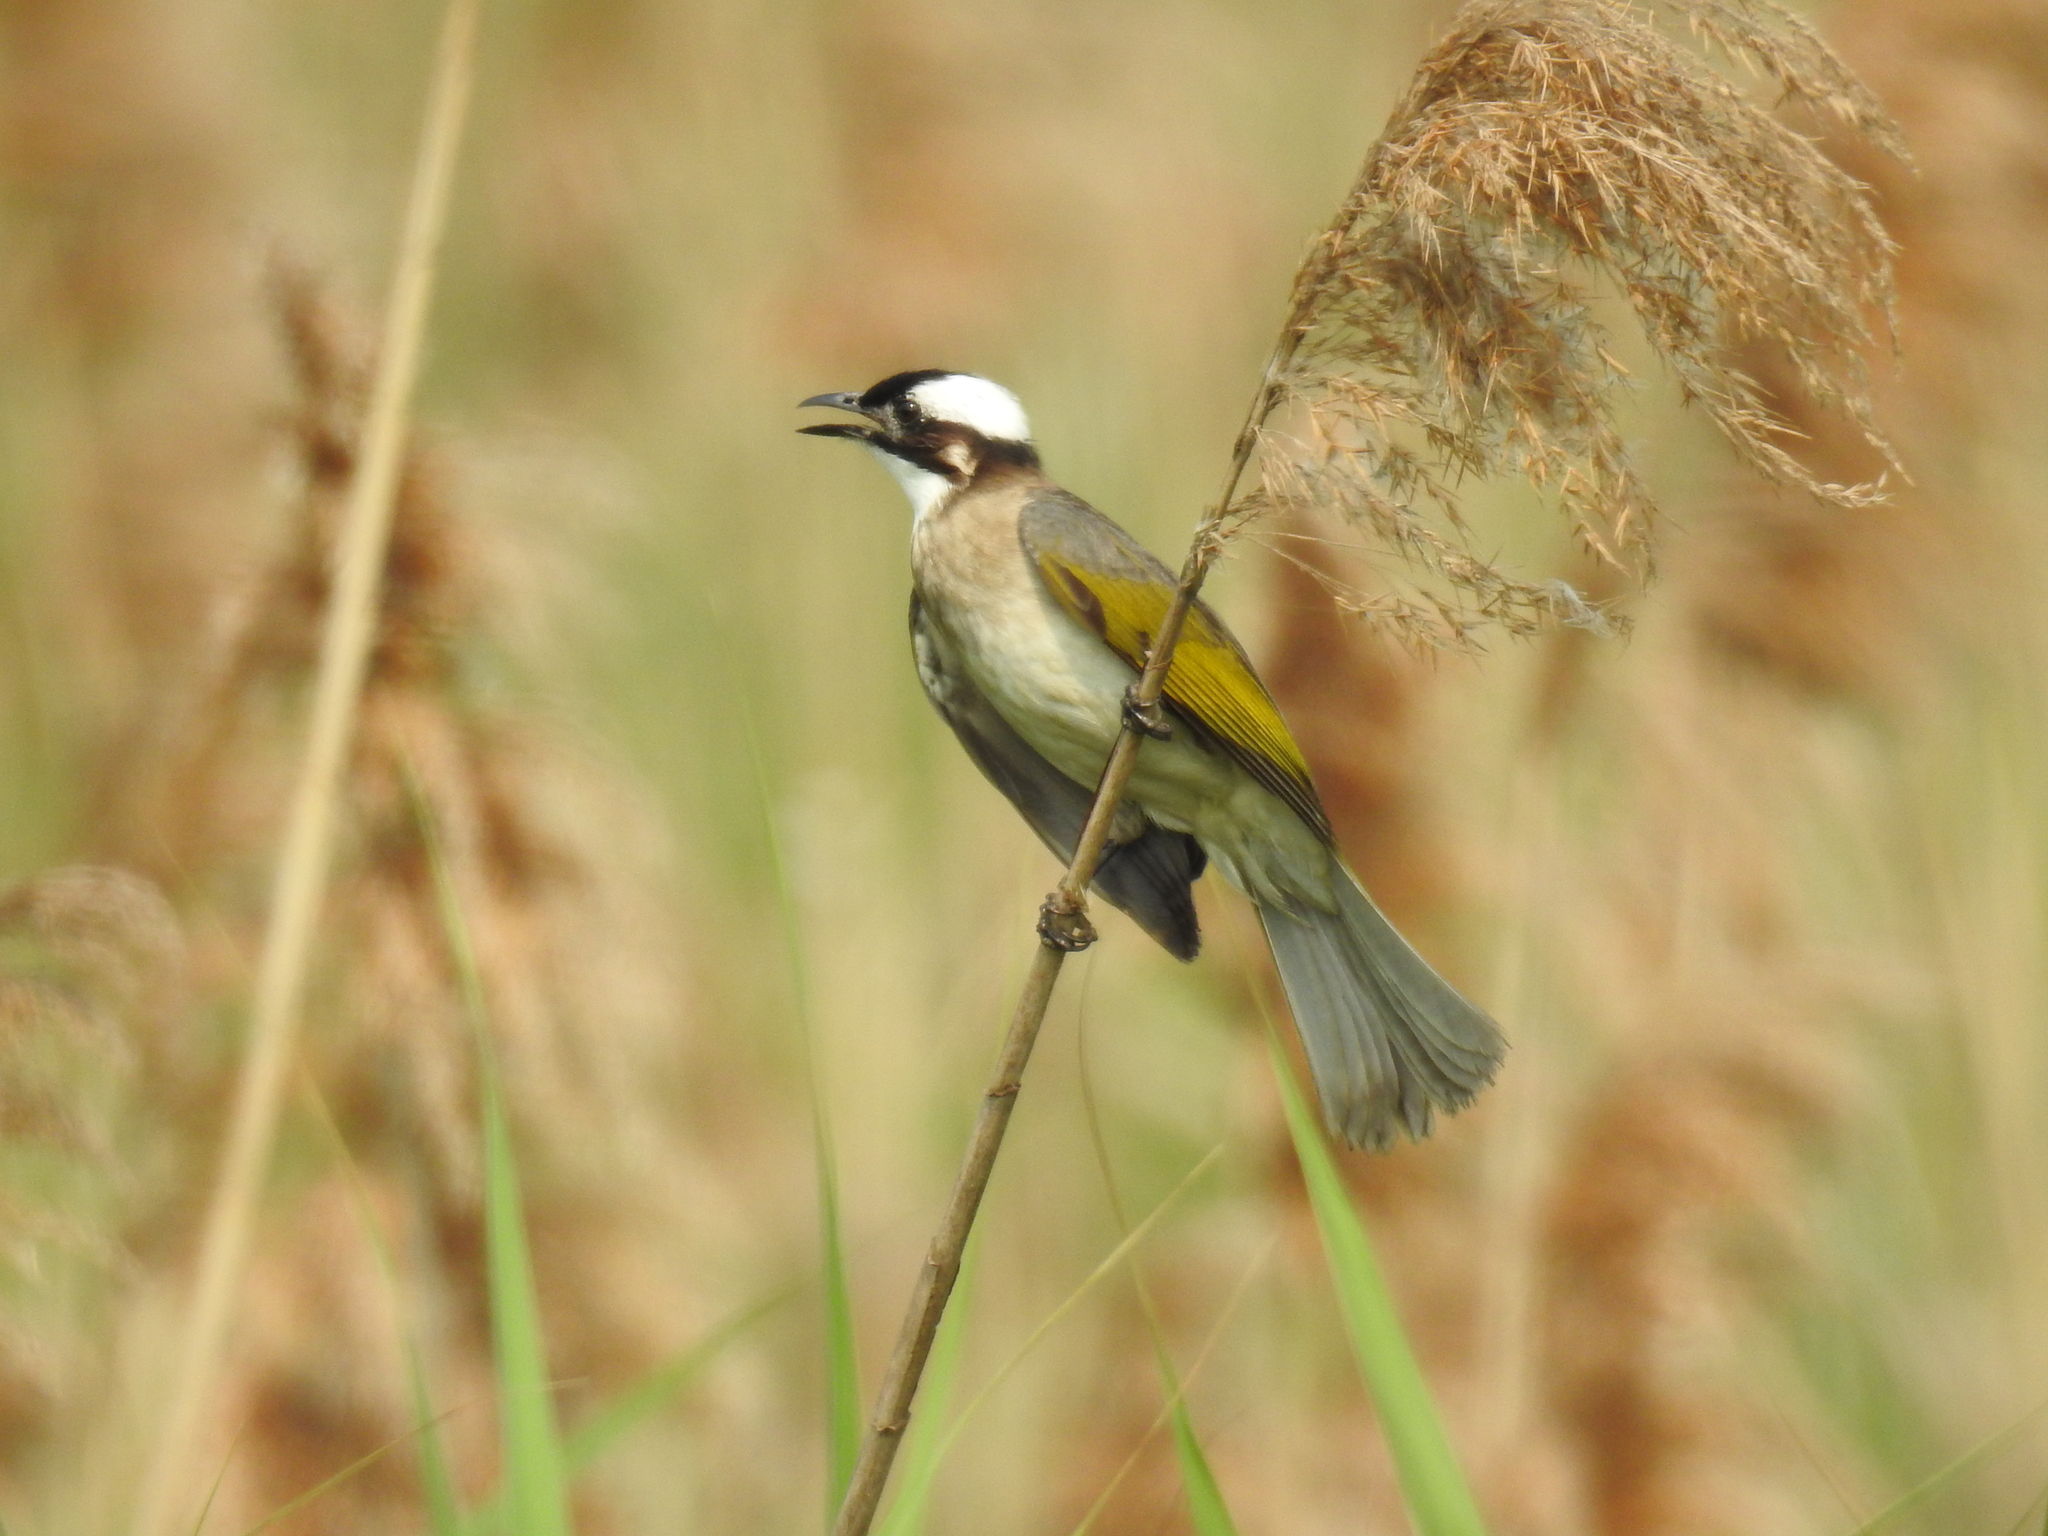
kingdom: Animalia
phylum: Chordata
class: Aves
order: Passeriformes
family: Pycnonotidae
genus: Pycnonotus
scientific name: Pycnonotus sinensis
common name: Light-vented bulbul
